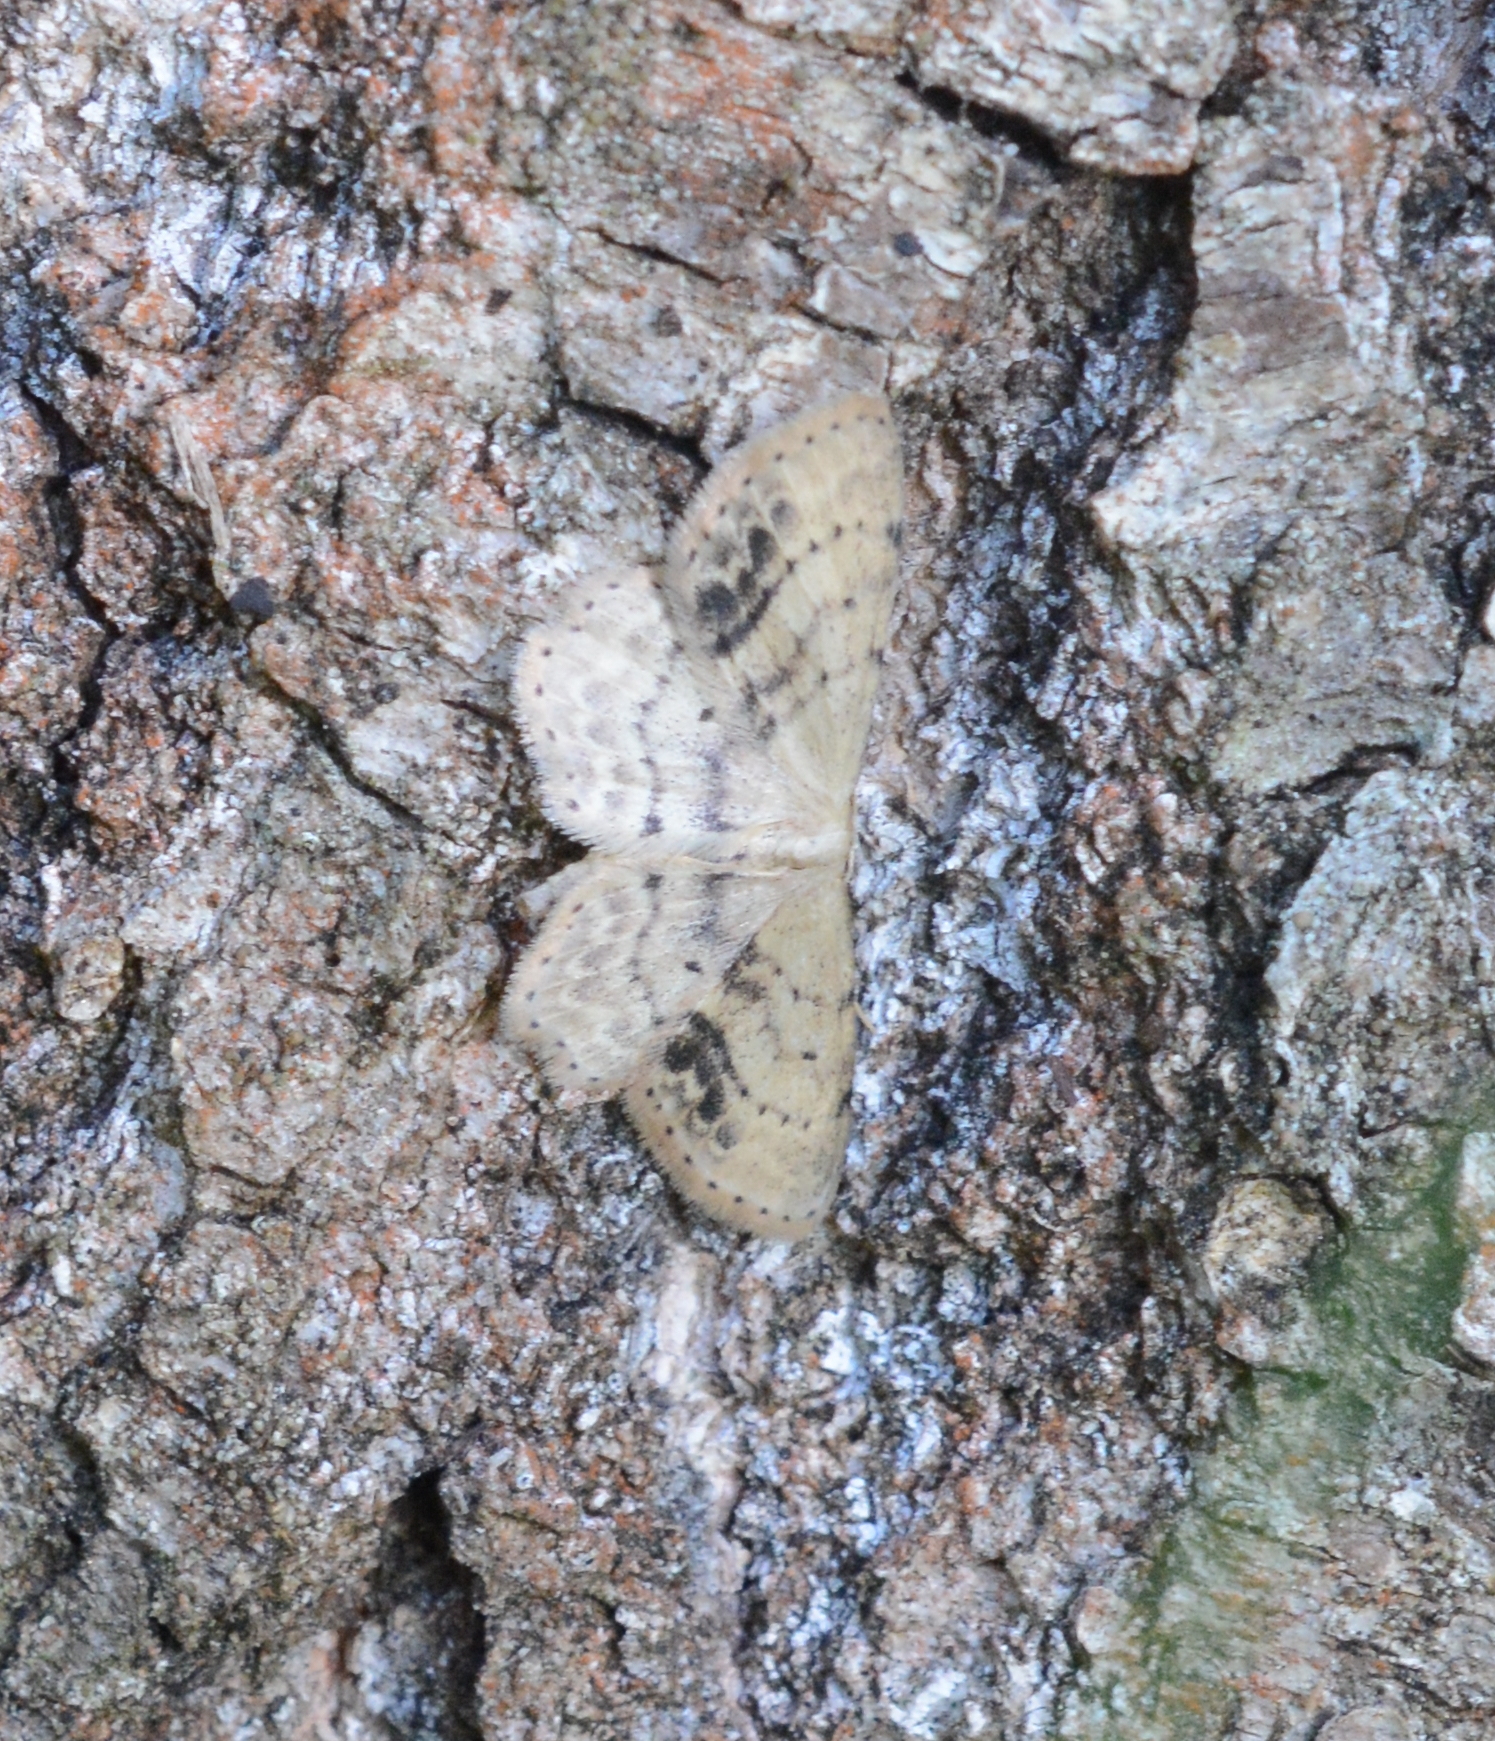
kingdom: Animalia
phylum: Arthropoda
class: Insecta
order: Lepidoptera
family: Geometridae
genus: Idaea
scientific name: Idaea dimidiata
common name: Single-dotted wave
